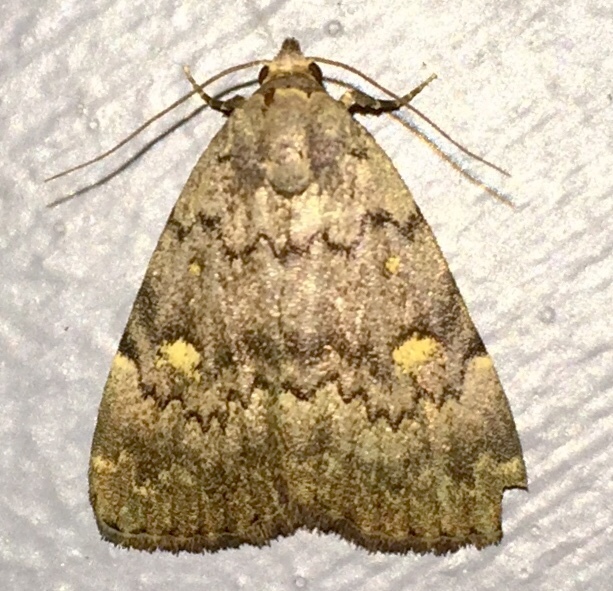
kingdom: Animalia
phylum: Arthropoda
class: Insecta
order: Lepidoptera
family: Erebidae
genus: Idia
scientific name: Idia aemula
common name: Common idia moth
